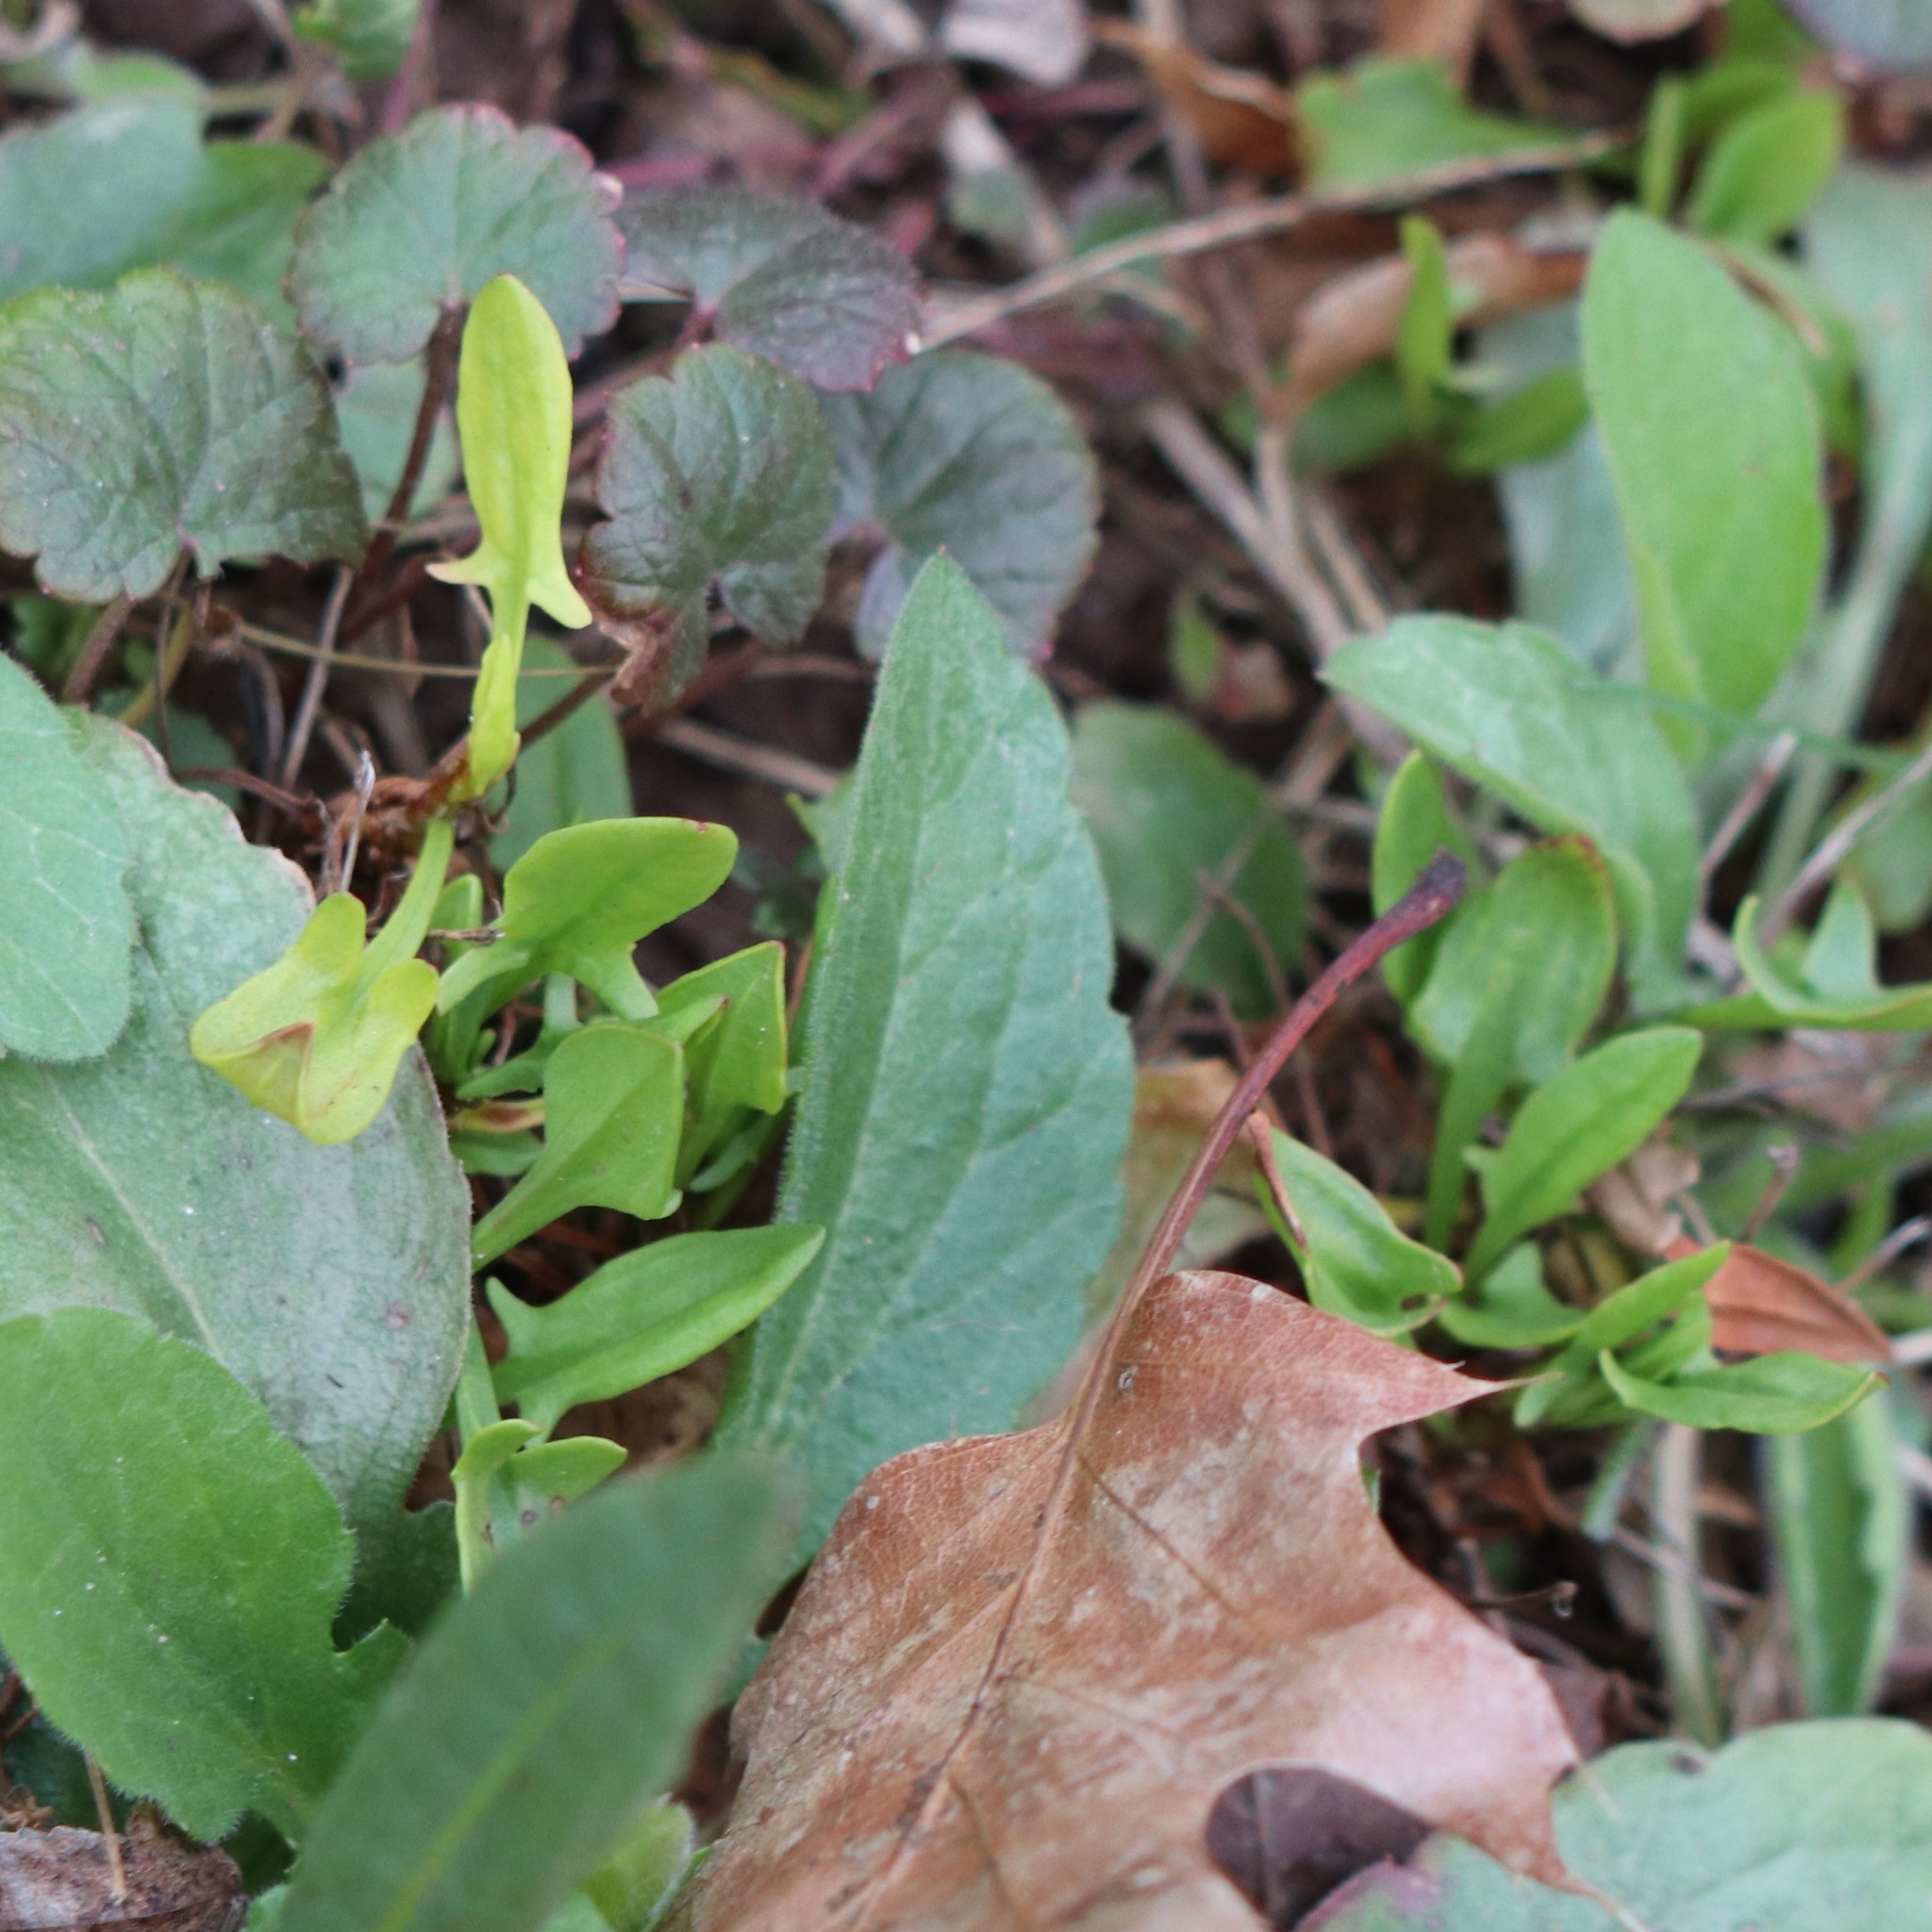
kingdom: Plantae
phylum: Tracheophyta
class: Magnoliopsida
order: Caryophyllales
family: Polygonaceae
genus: Rumex
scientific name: Rumex acetosella
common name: Common sheep sorrel
